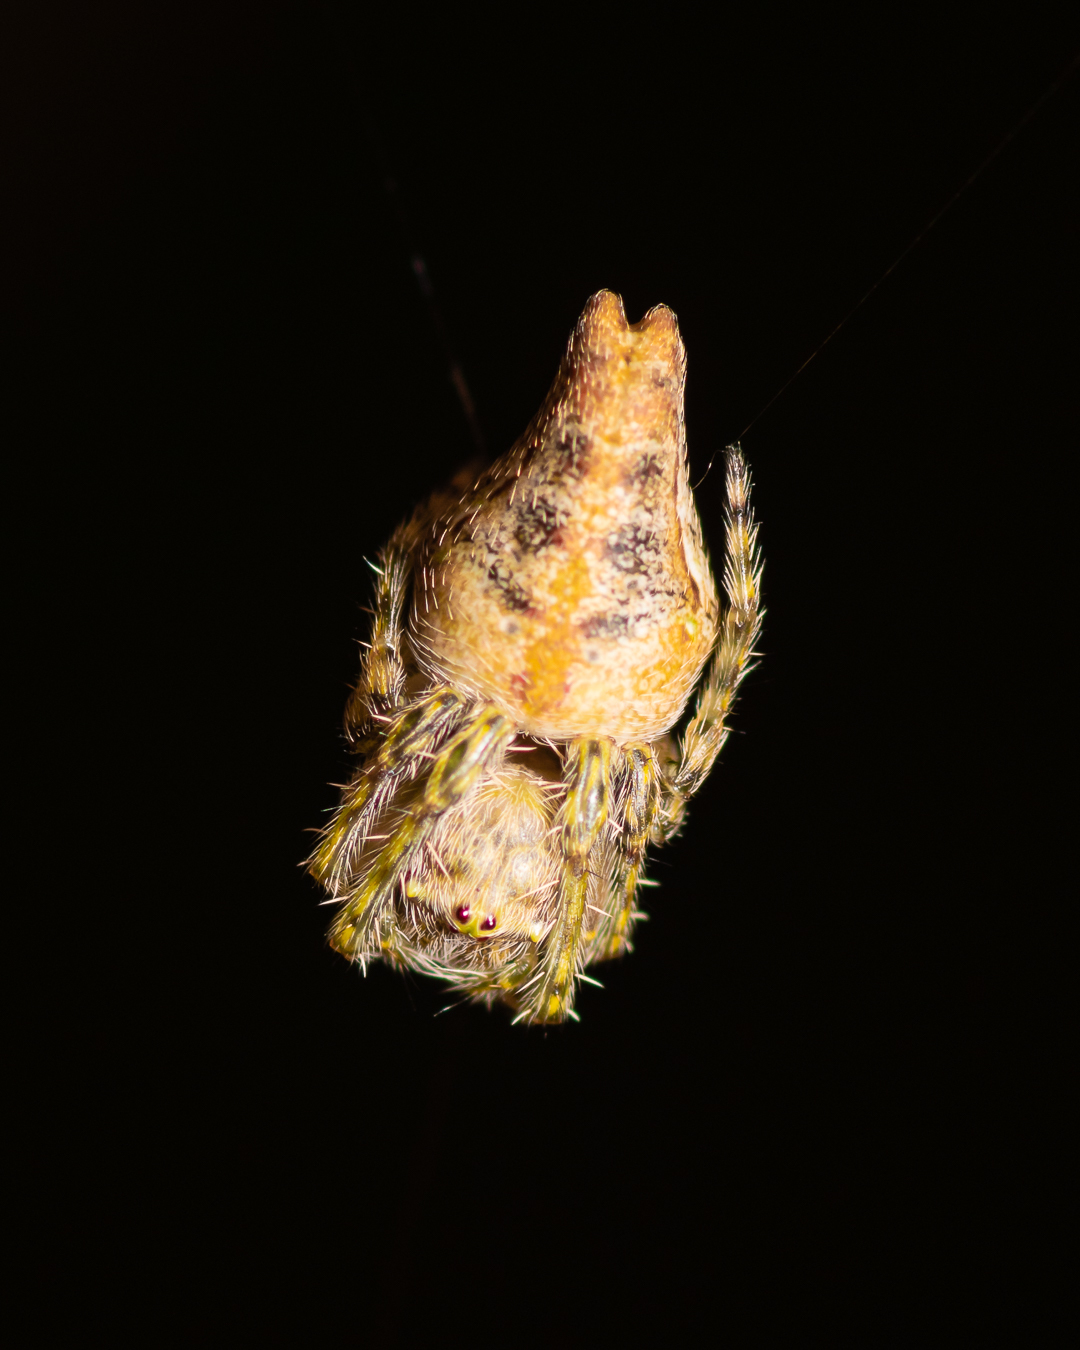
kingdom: Animalia
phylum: Arthropoda
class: Arachnida
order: Araneae
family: Araneidae
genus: Nicolepeira
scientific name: Nicolepeira bicaudata
